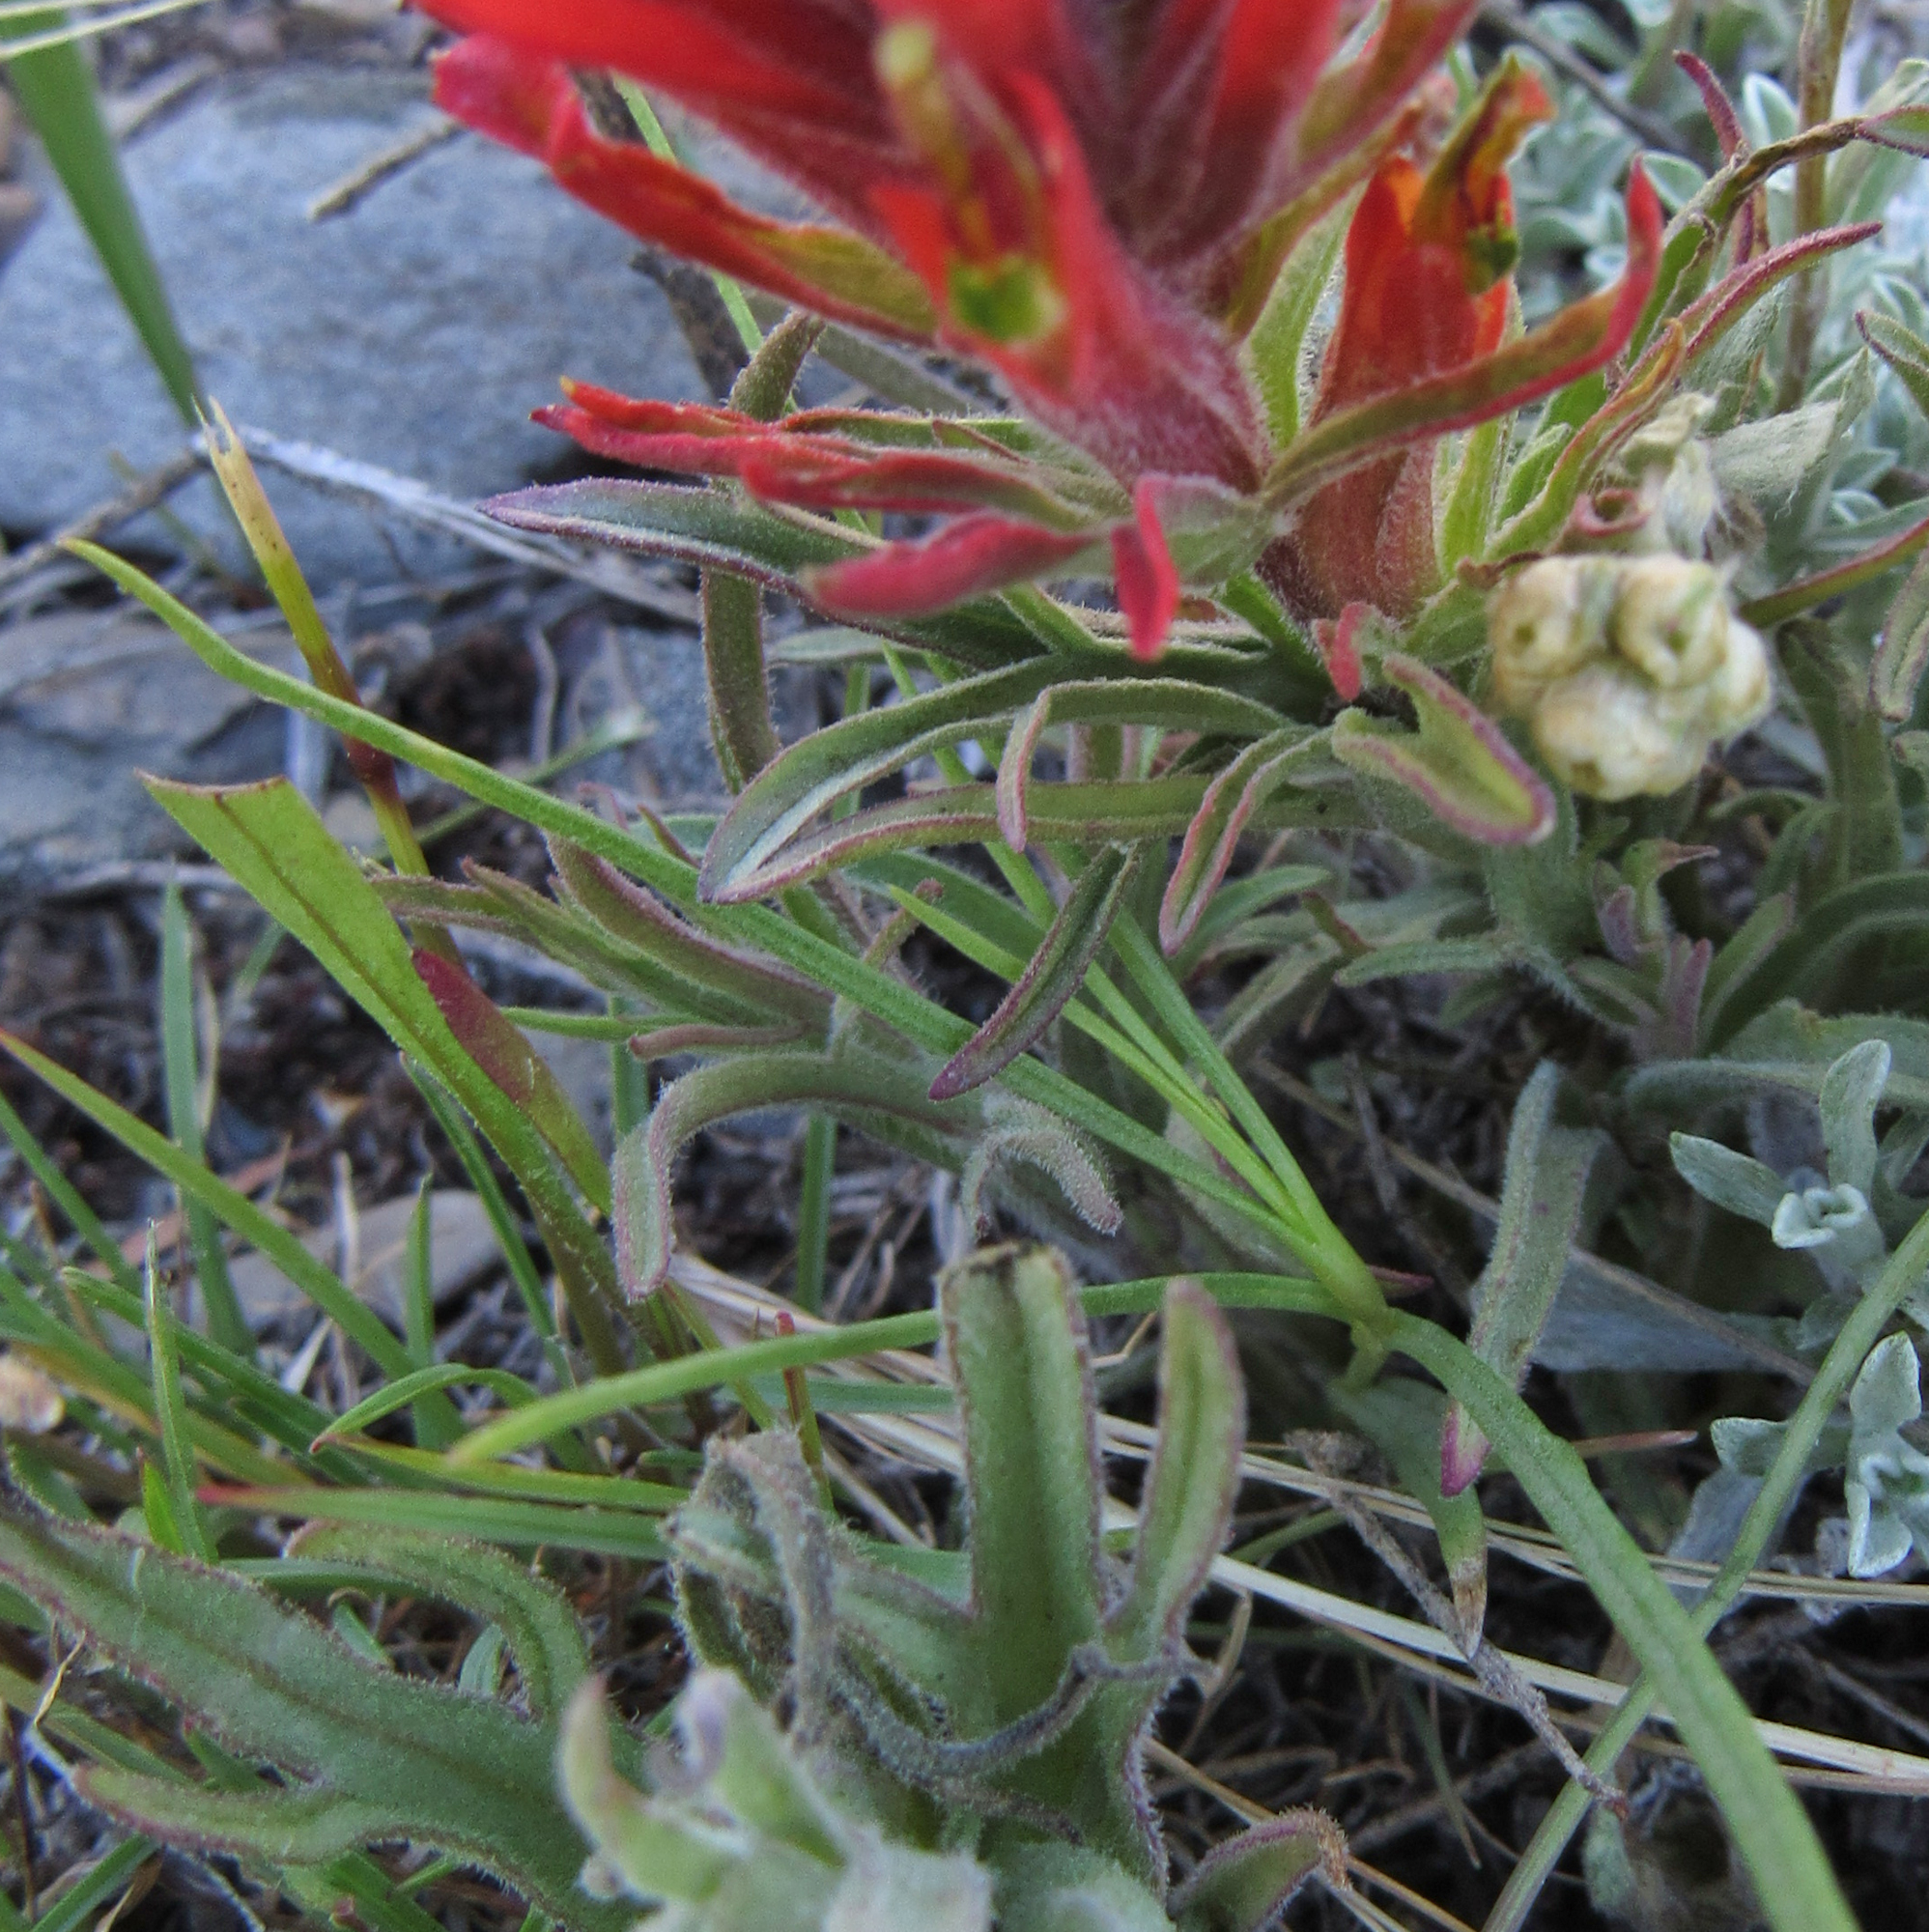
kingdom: Plantae
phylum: Tracheophyta
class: Magnoliopsida
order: Lamiales
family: Orobanchaceae
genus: Castilleja
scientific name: Castilleja chromosa
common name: Desert paintbrush
